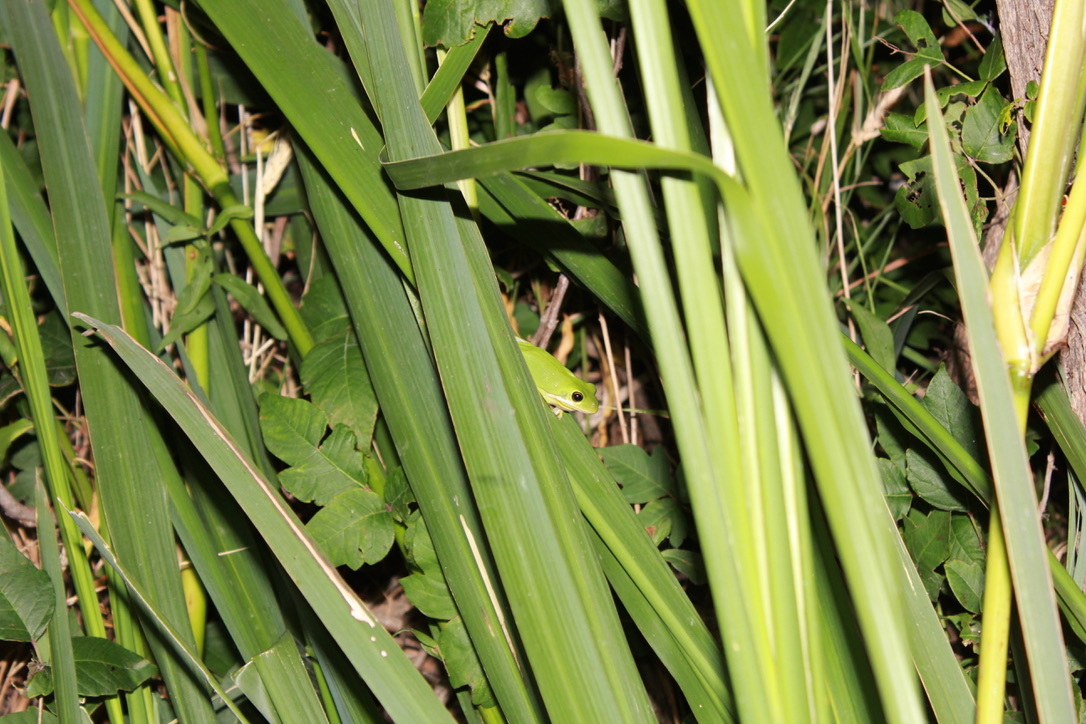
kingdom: Animalia
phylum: Chordata
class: Amphibia
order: Anura
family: Hylidae
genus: Dryophytes
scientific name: Dryophytes cinereus
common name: Green treefrog
